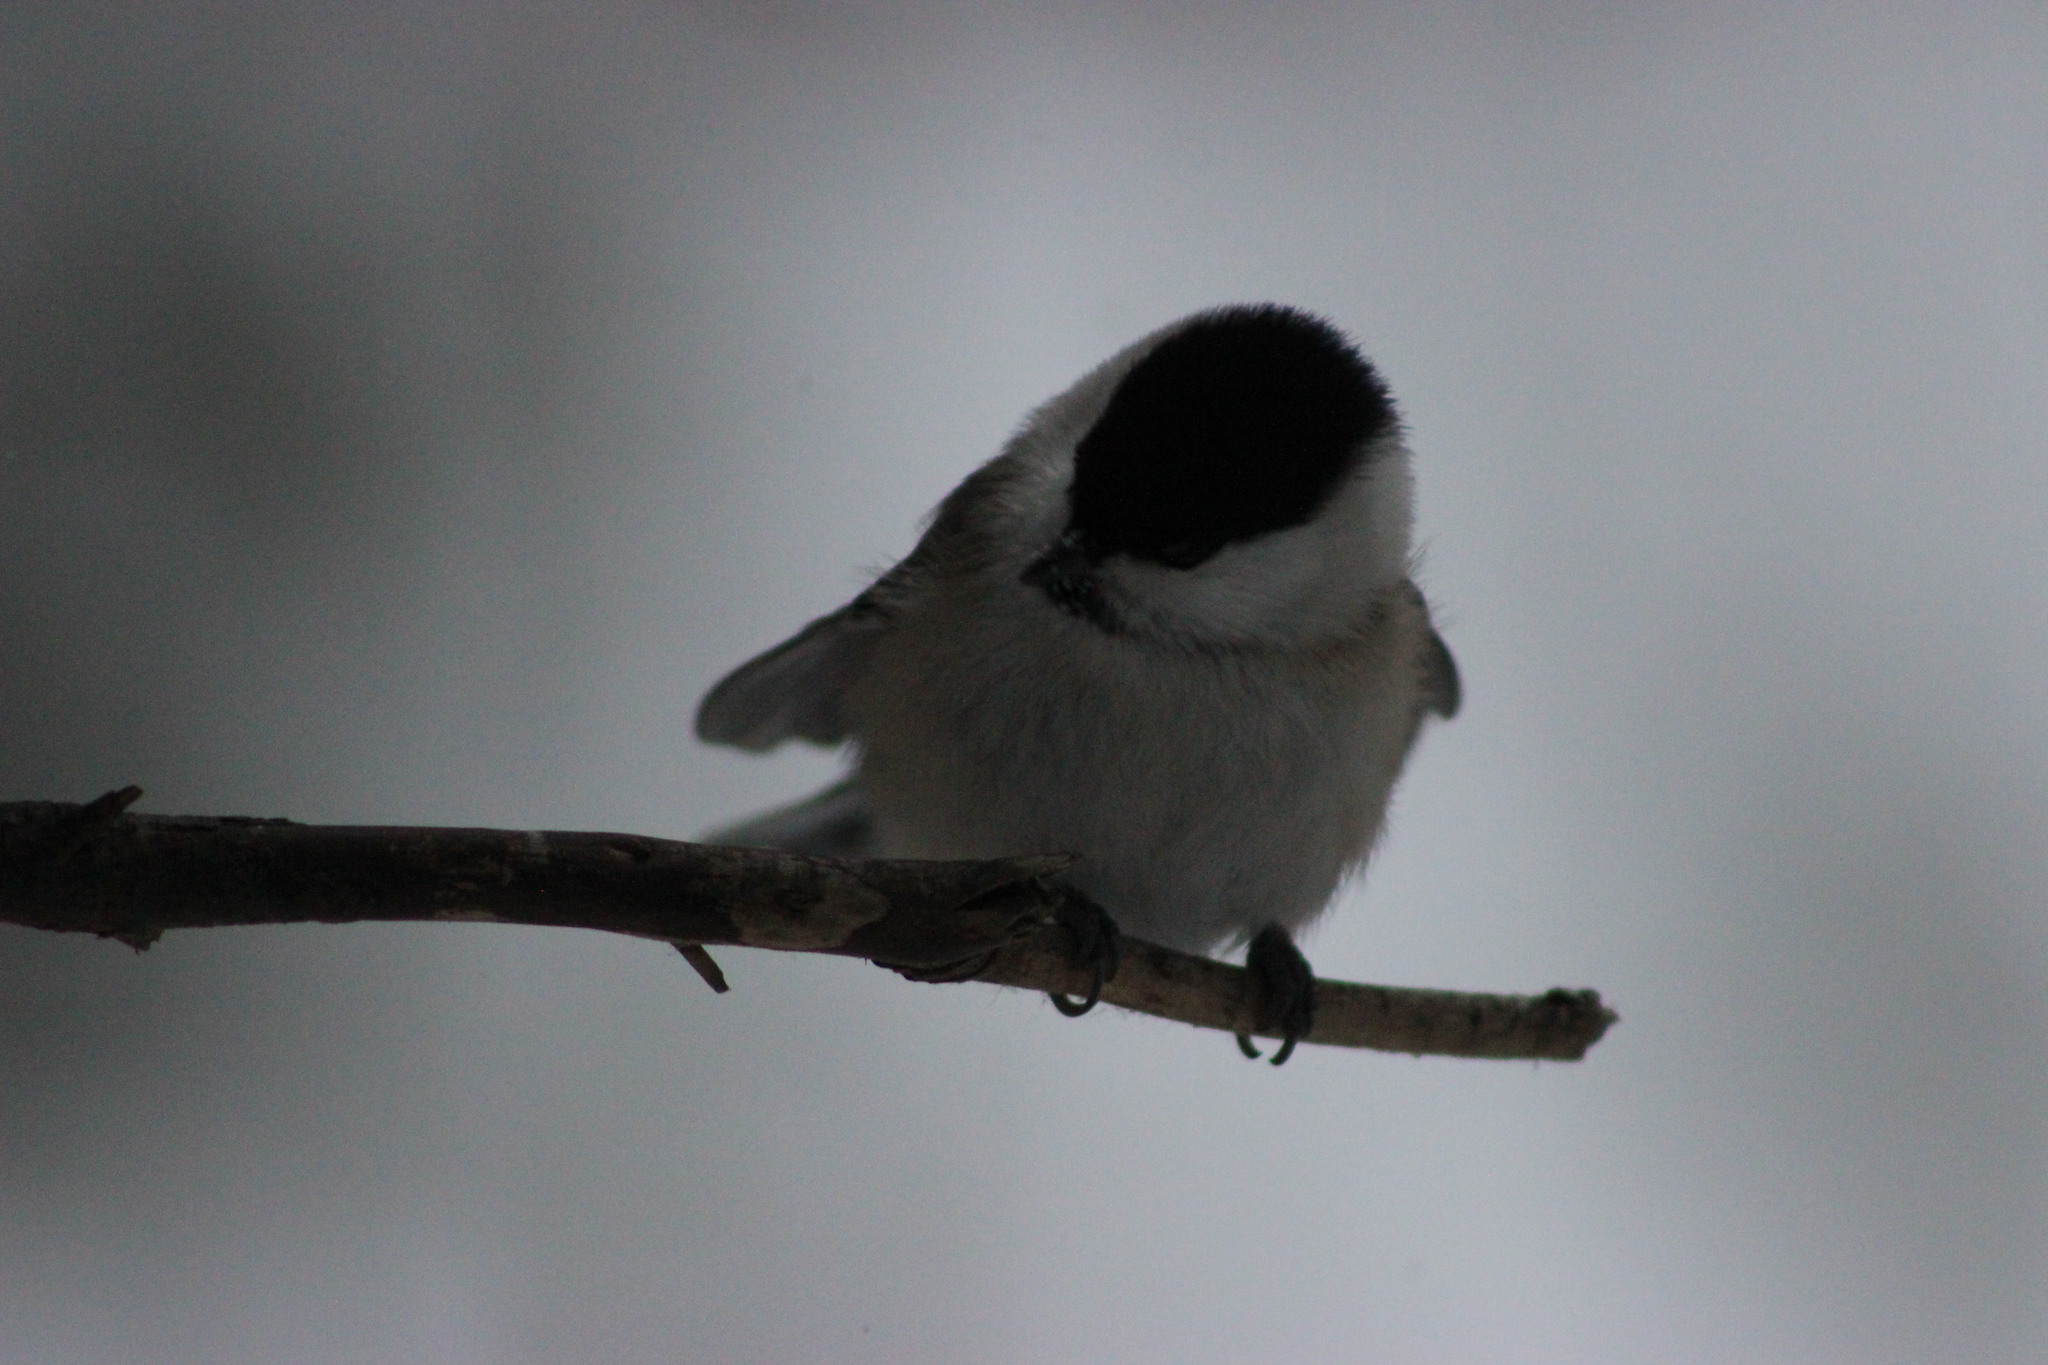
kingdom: Animalia
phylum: Chordata
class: Aves
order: Passeriformes
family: Paridae
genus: Poecile
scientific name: Poecile montanus
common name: Willow tit
